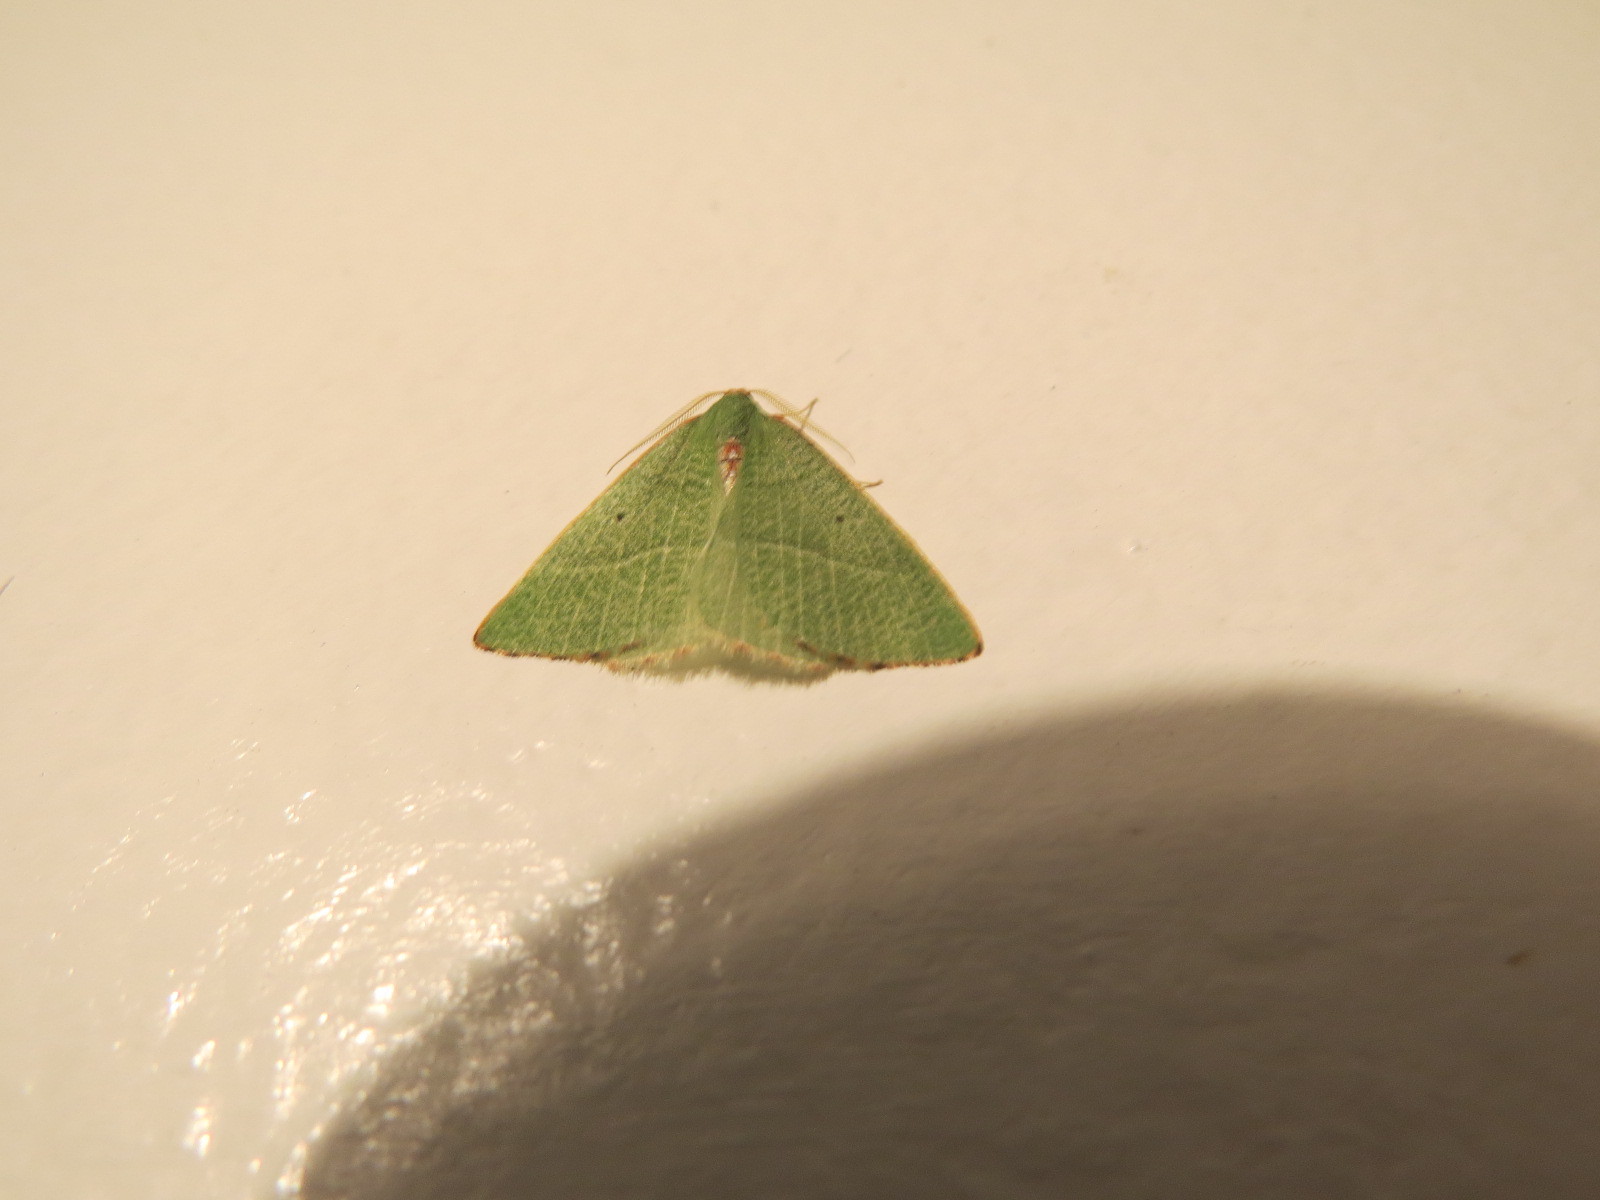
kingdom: Animalia
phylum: Arthropoda
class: Insecta
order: Lepidoptera
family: Geometridae
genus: Nemoria
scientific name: Nemoria pulcherrima
